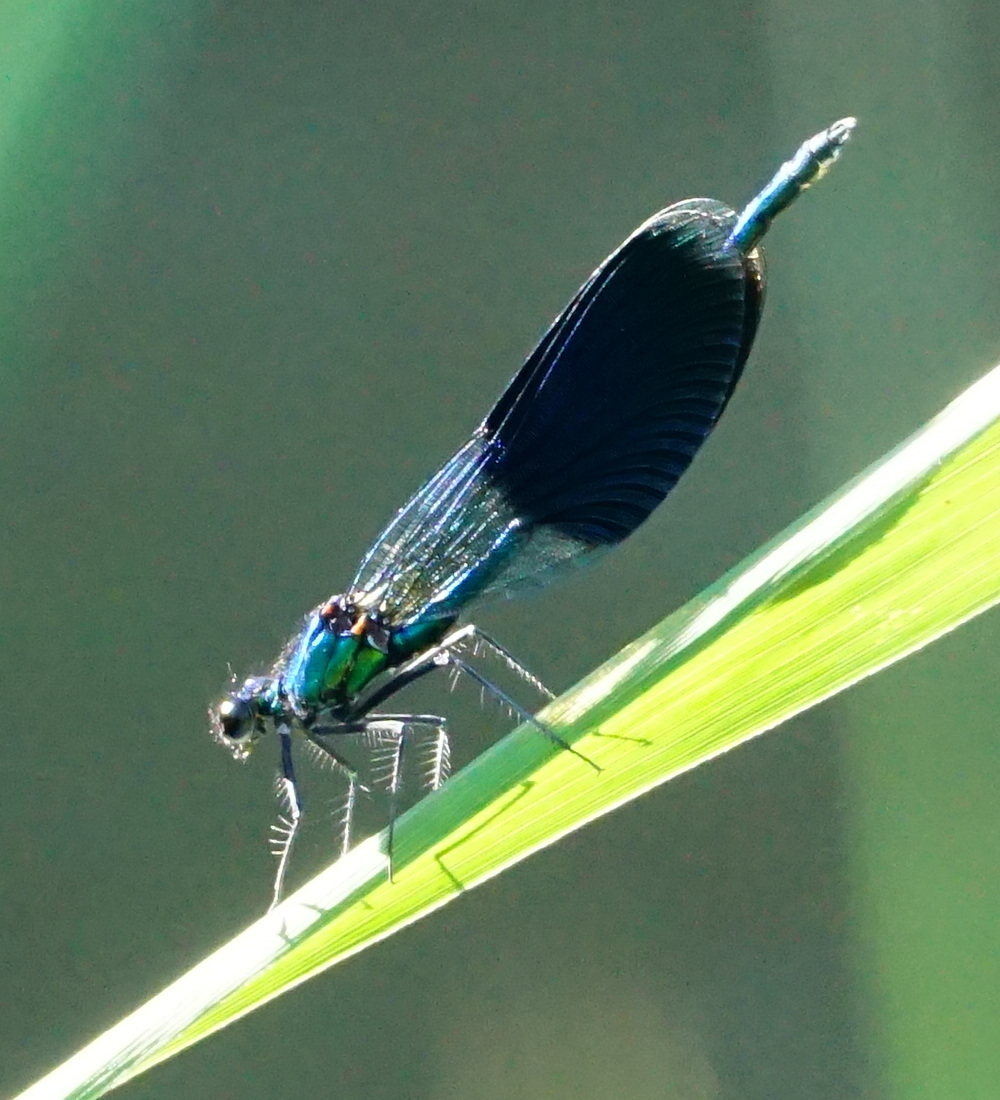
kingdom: Animalia
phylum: Arthropoda
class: Insecta
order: Odonata
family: Calopterygidae
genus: Calopteryx
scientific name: Calopteryx splendens
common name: Banded demoiselle
